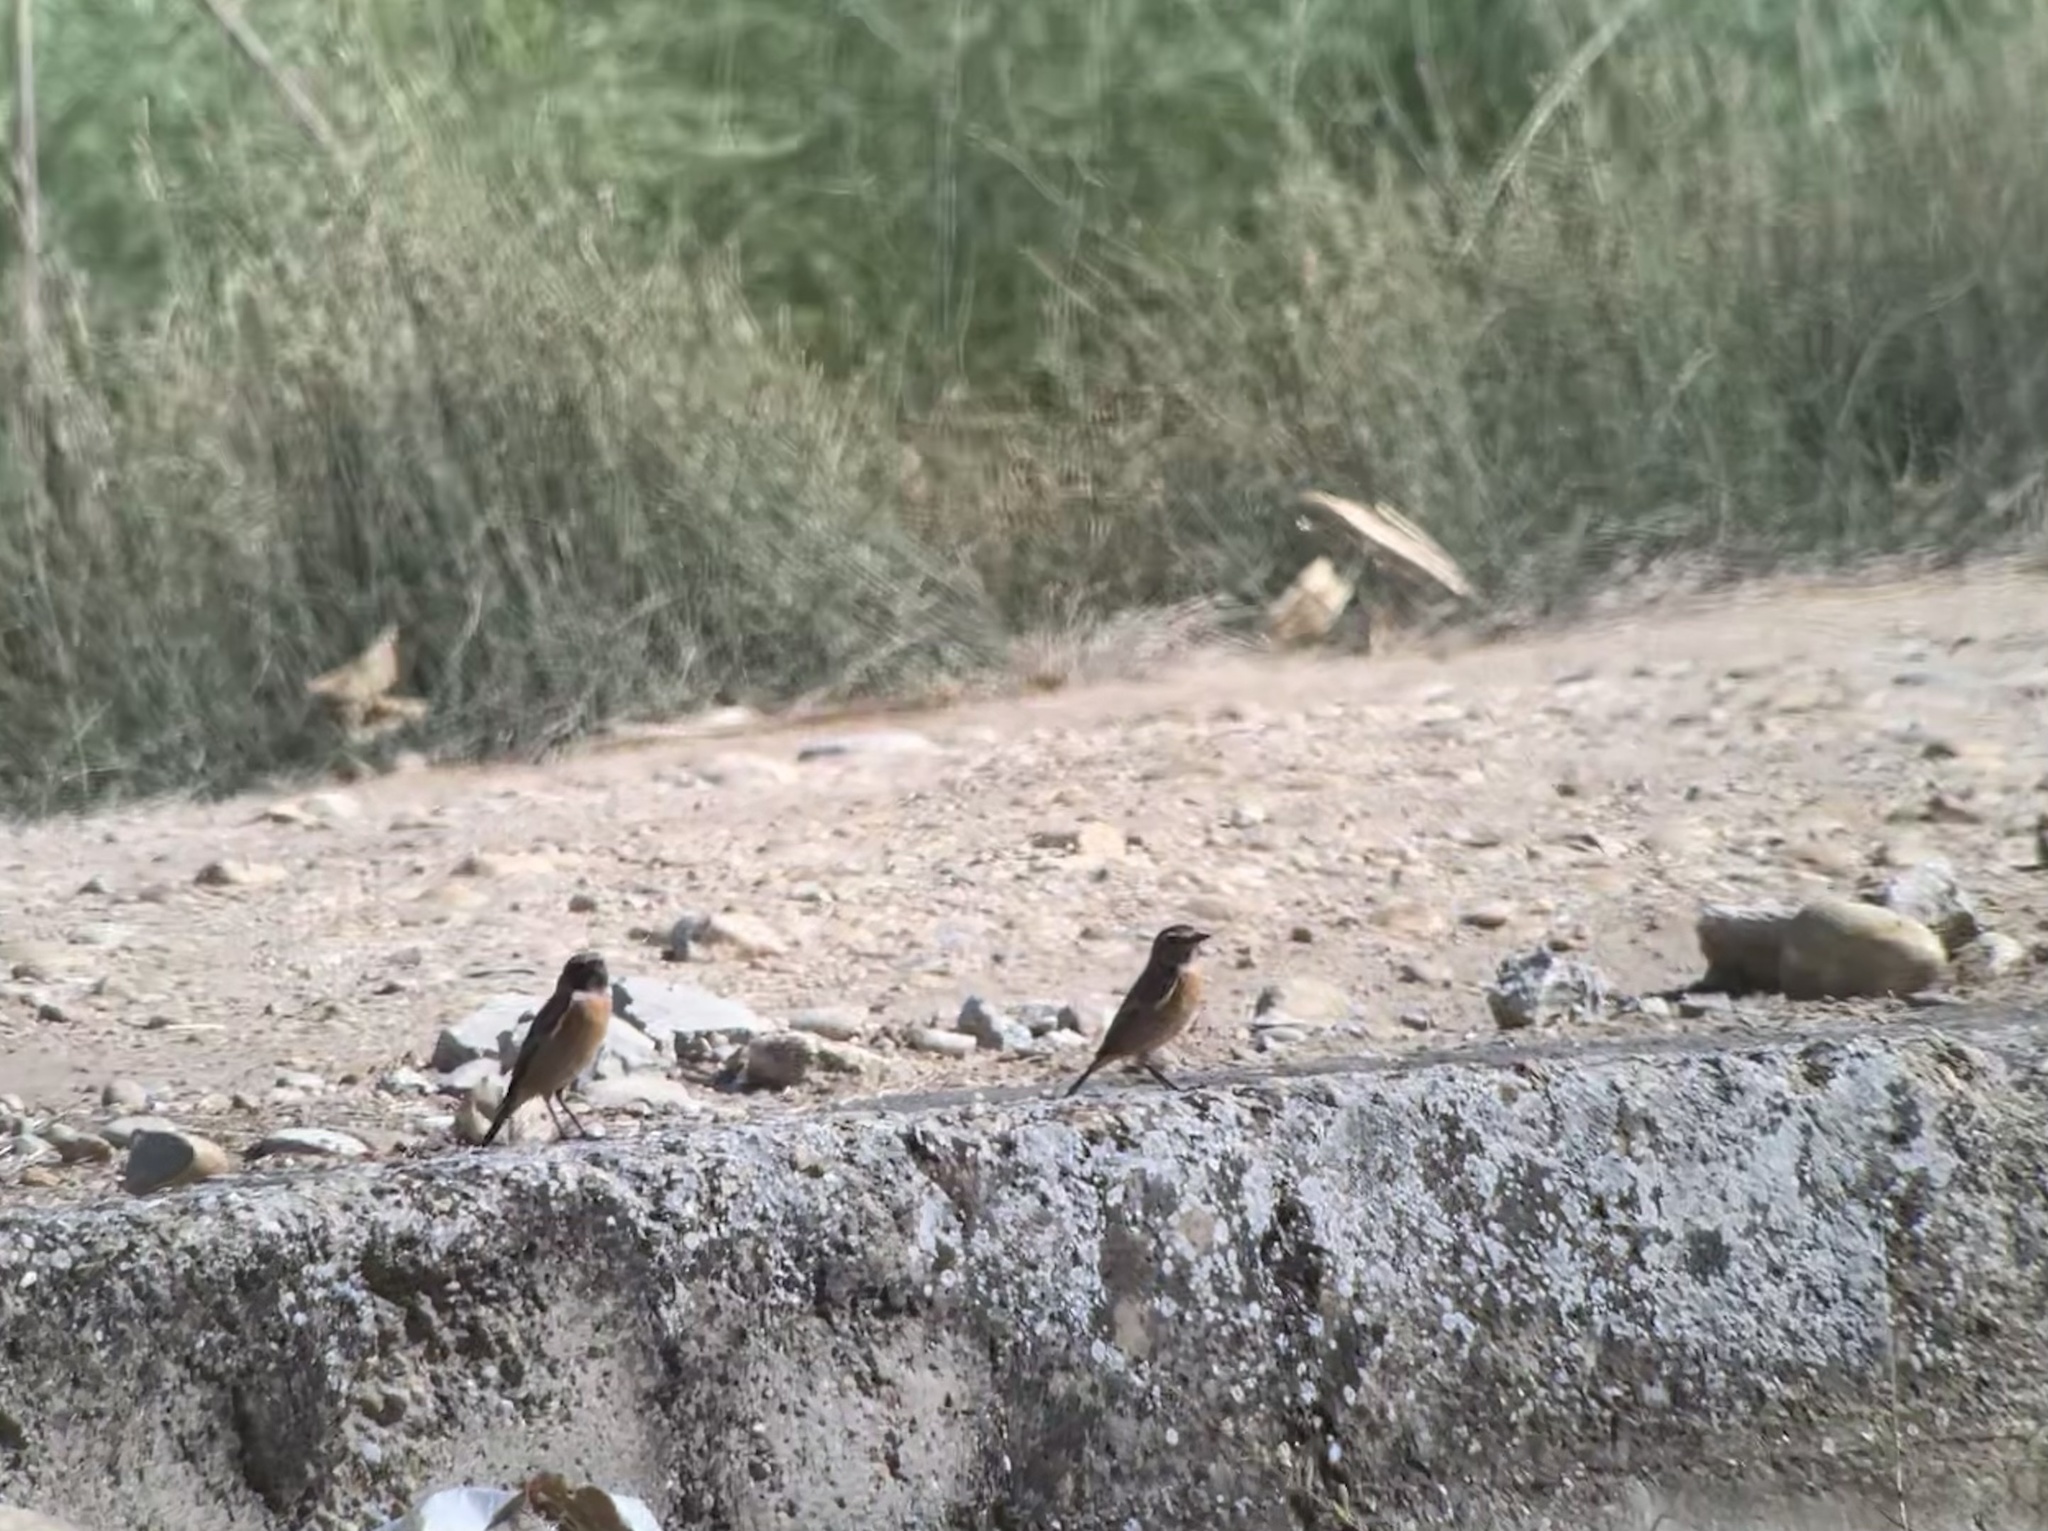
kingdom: Animalia
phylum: Chordata
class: Aves
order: Passeriformes
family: Muscicapidae
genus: Saxicola
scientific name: Saxicola rubicola
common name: European stonechat
